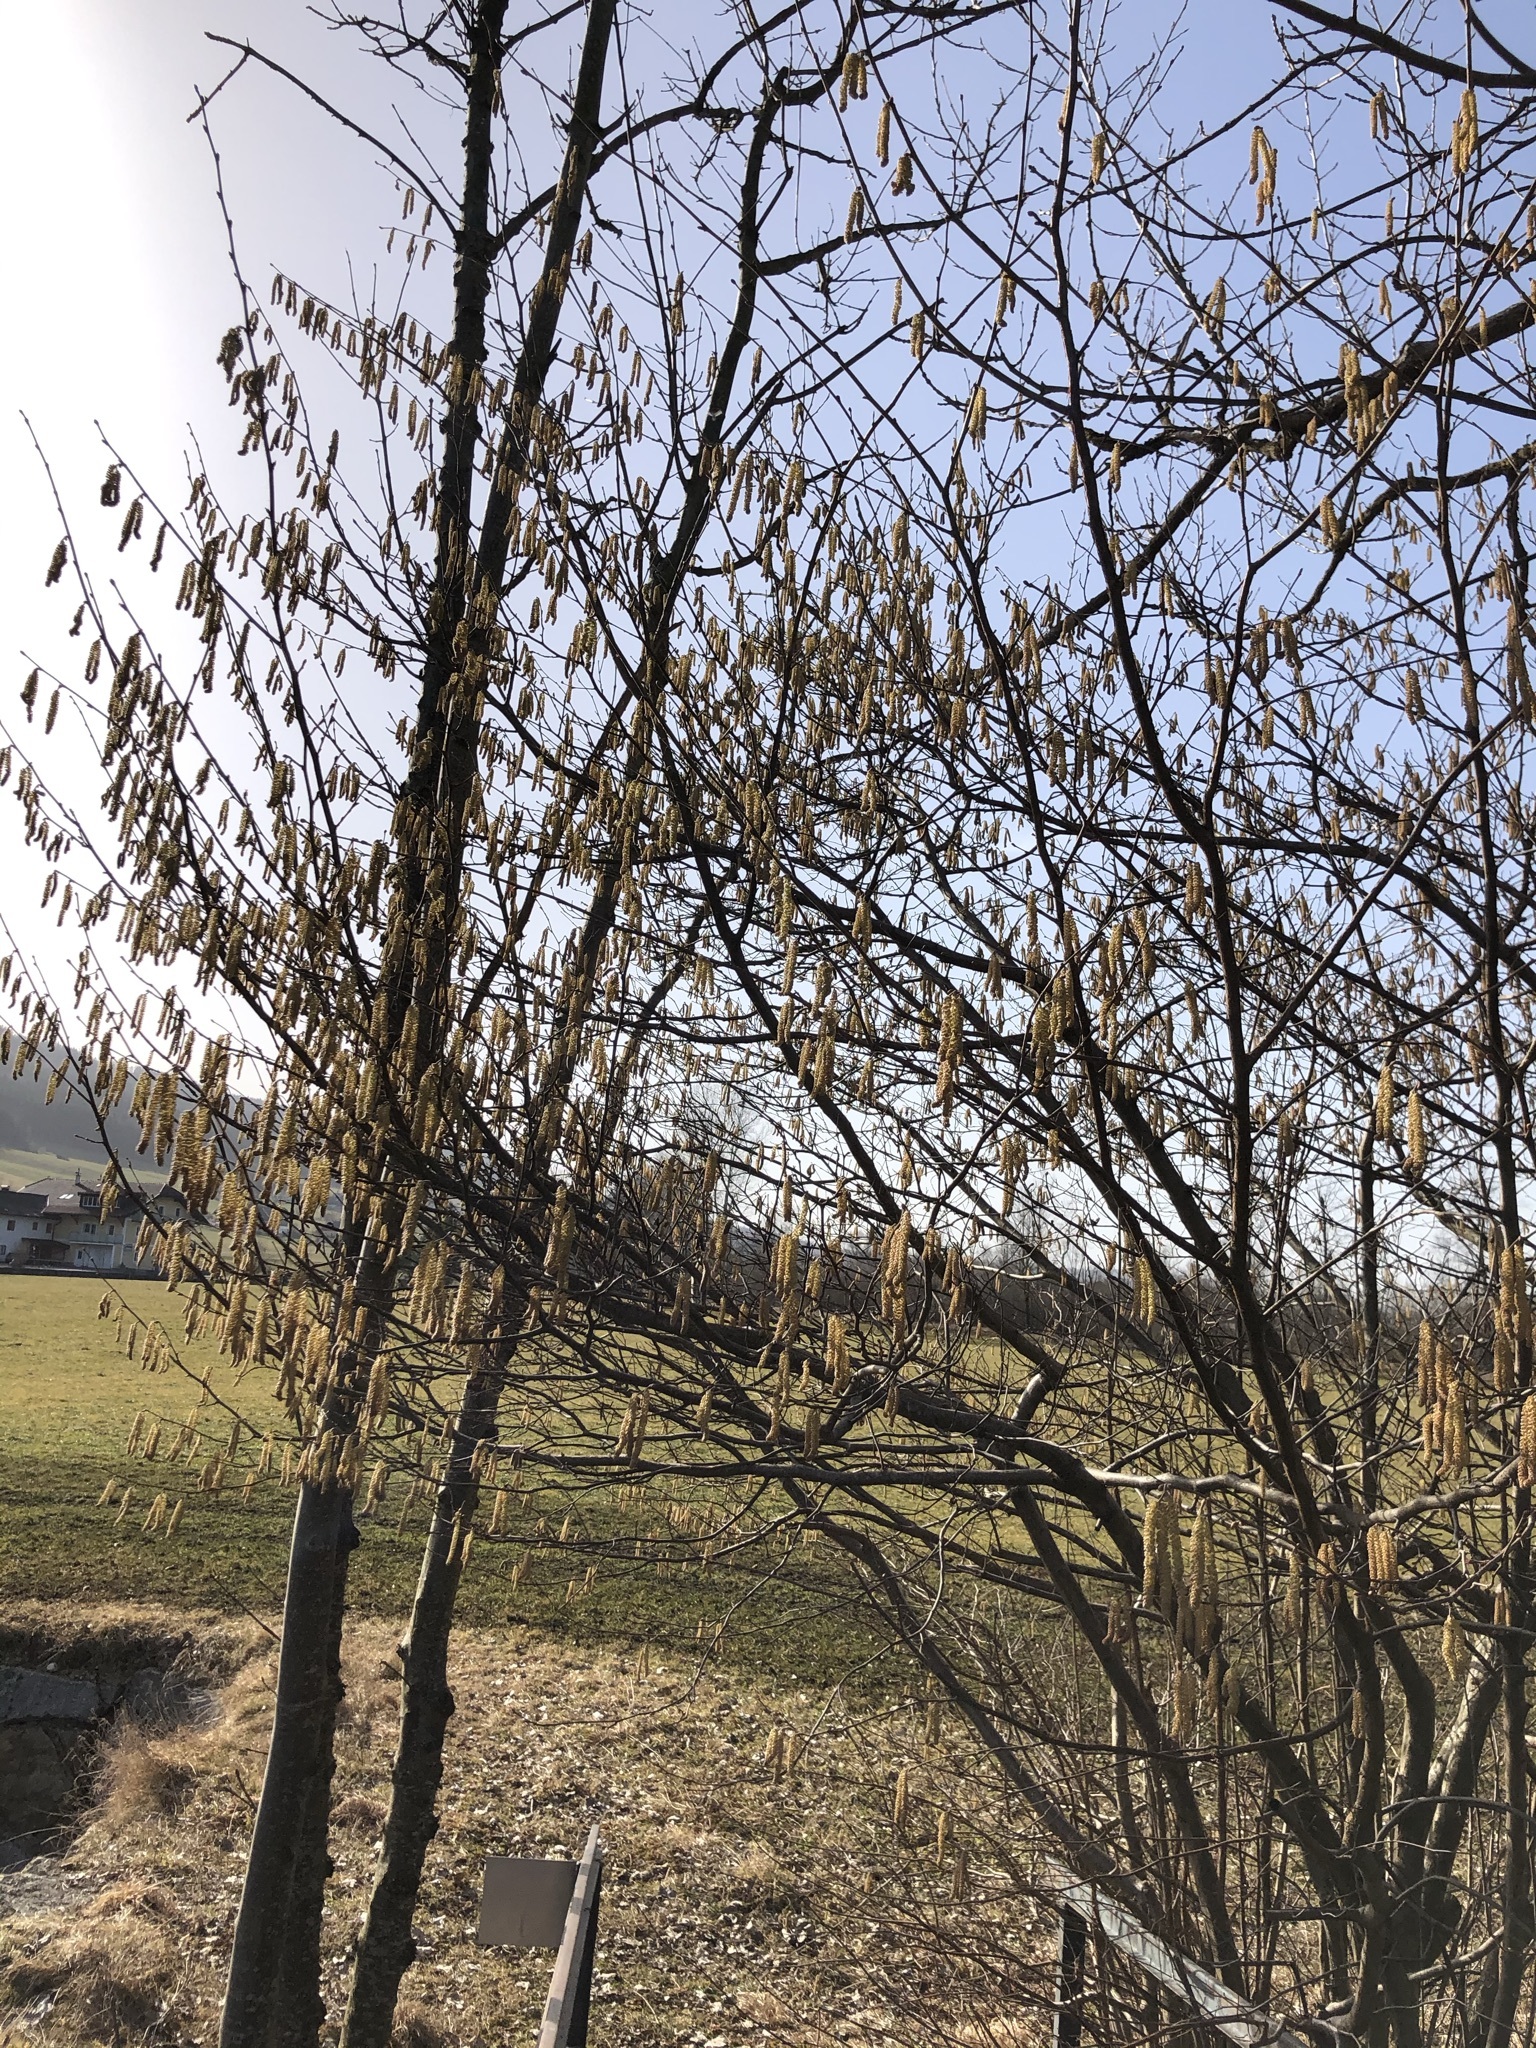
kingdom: Plantae
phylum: Tracheophyta
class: Magnoliopsida
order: Fagales
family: Betulaceae
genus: Corylus
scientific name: Corylus avellana
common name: European hazel
